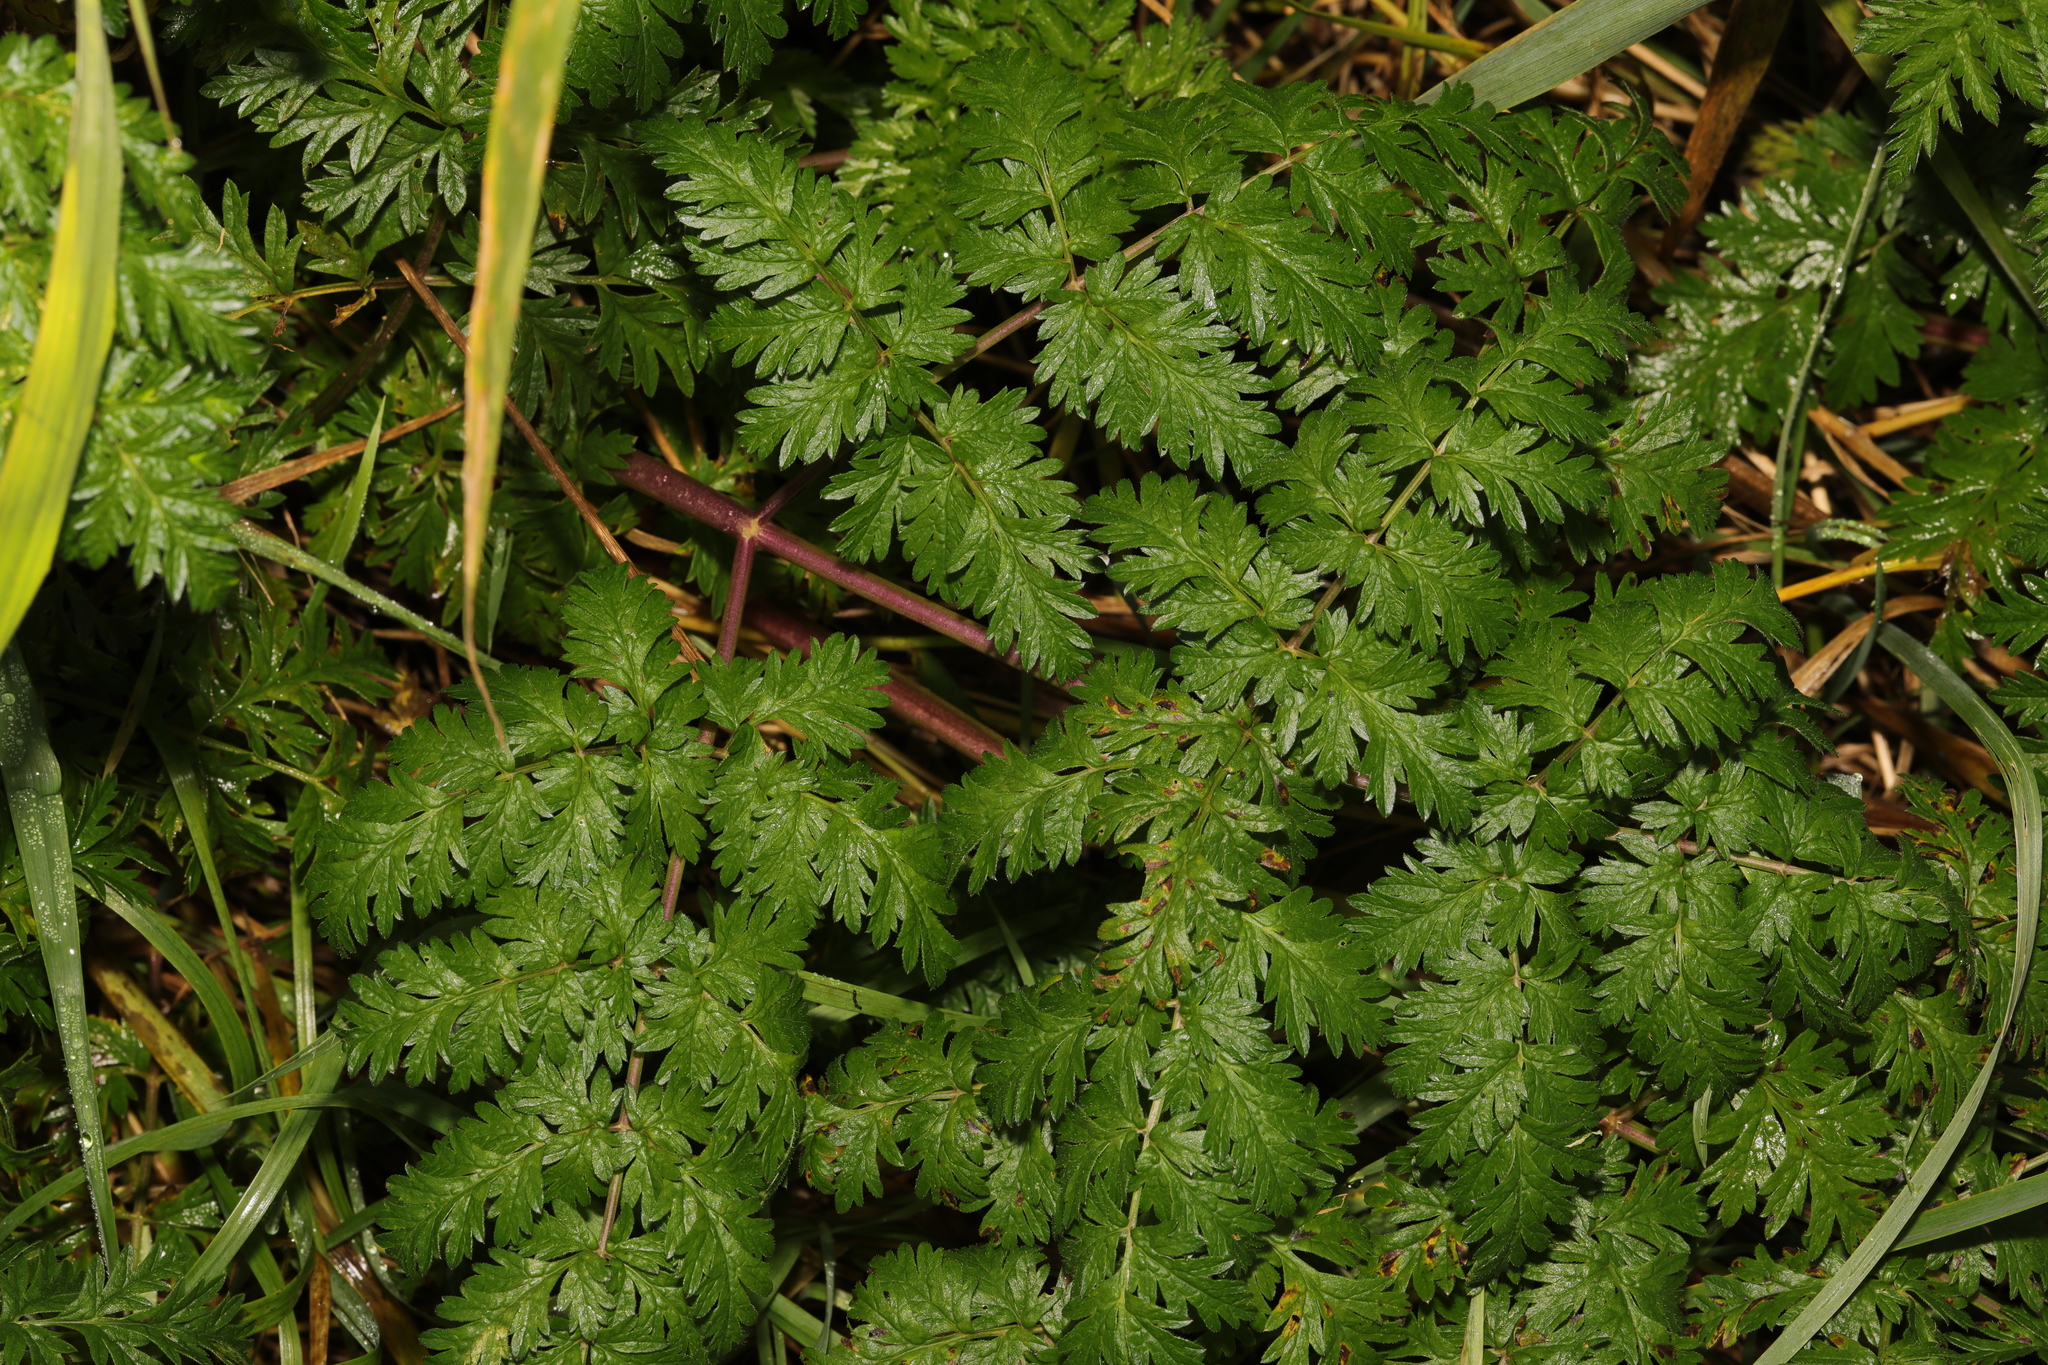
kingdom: Plantae
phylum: Tracheophyta
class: Magnoliopsida
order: Apiales
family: Apiaceae
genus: Anthriscus
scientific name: Anthriscus sylvestris
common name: Cow parsley
